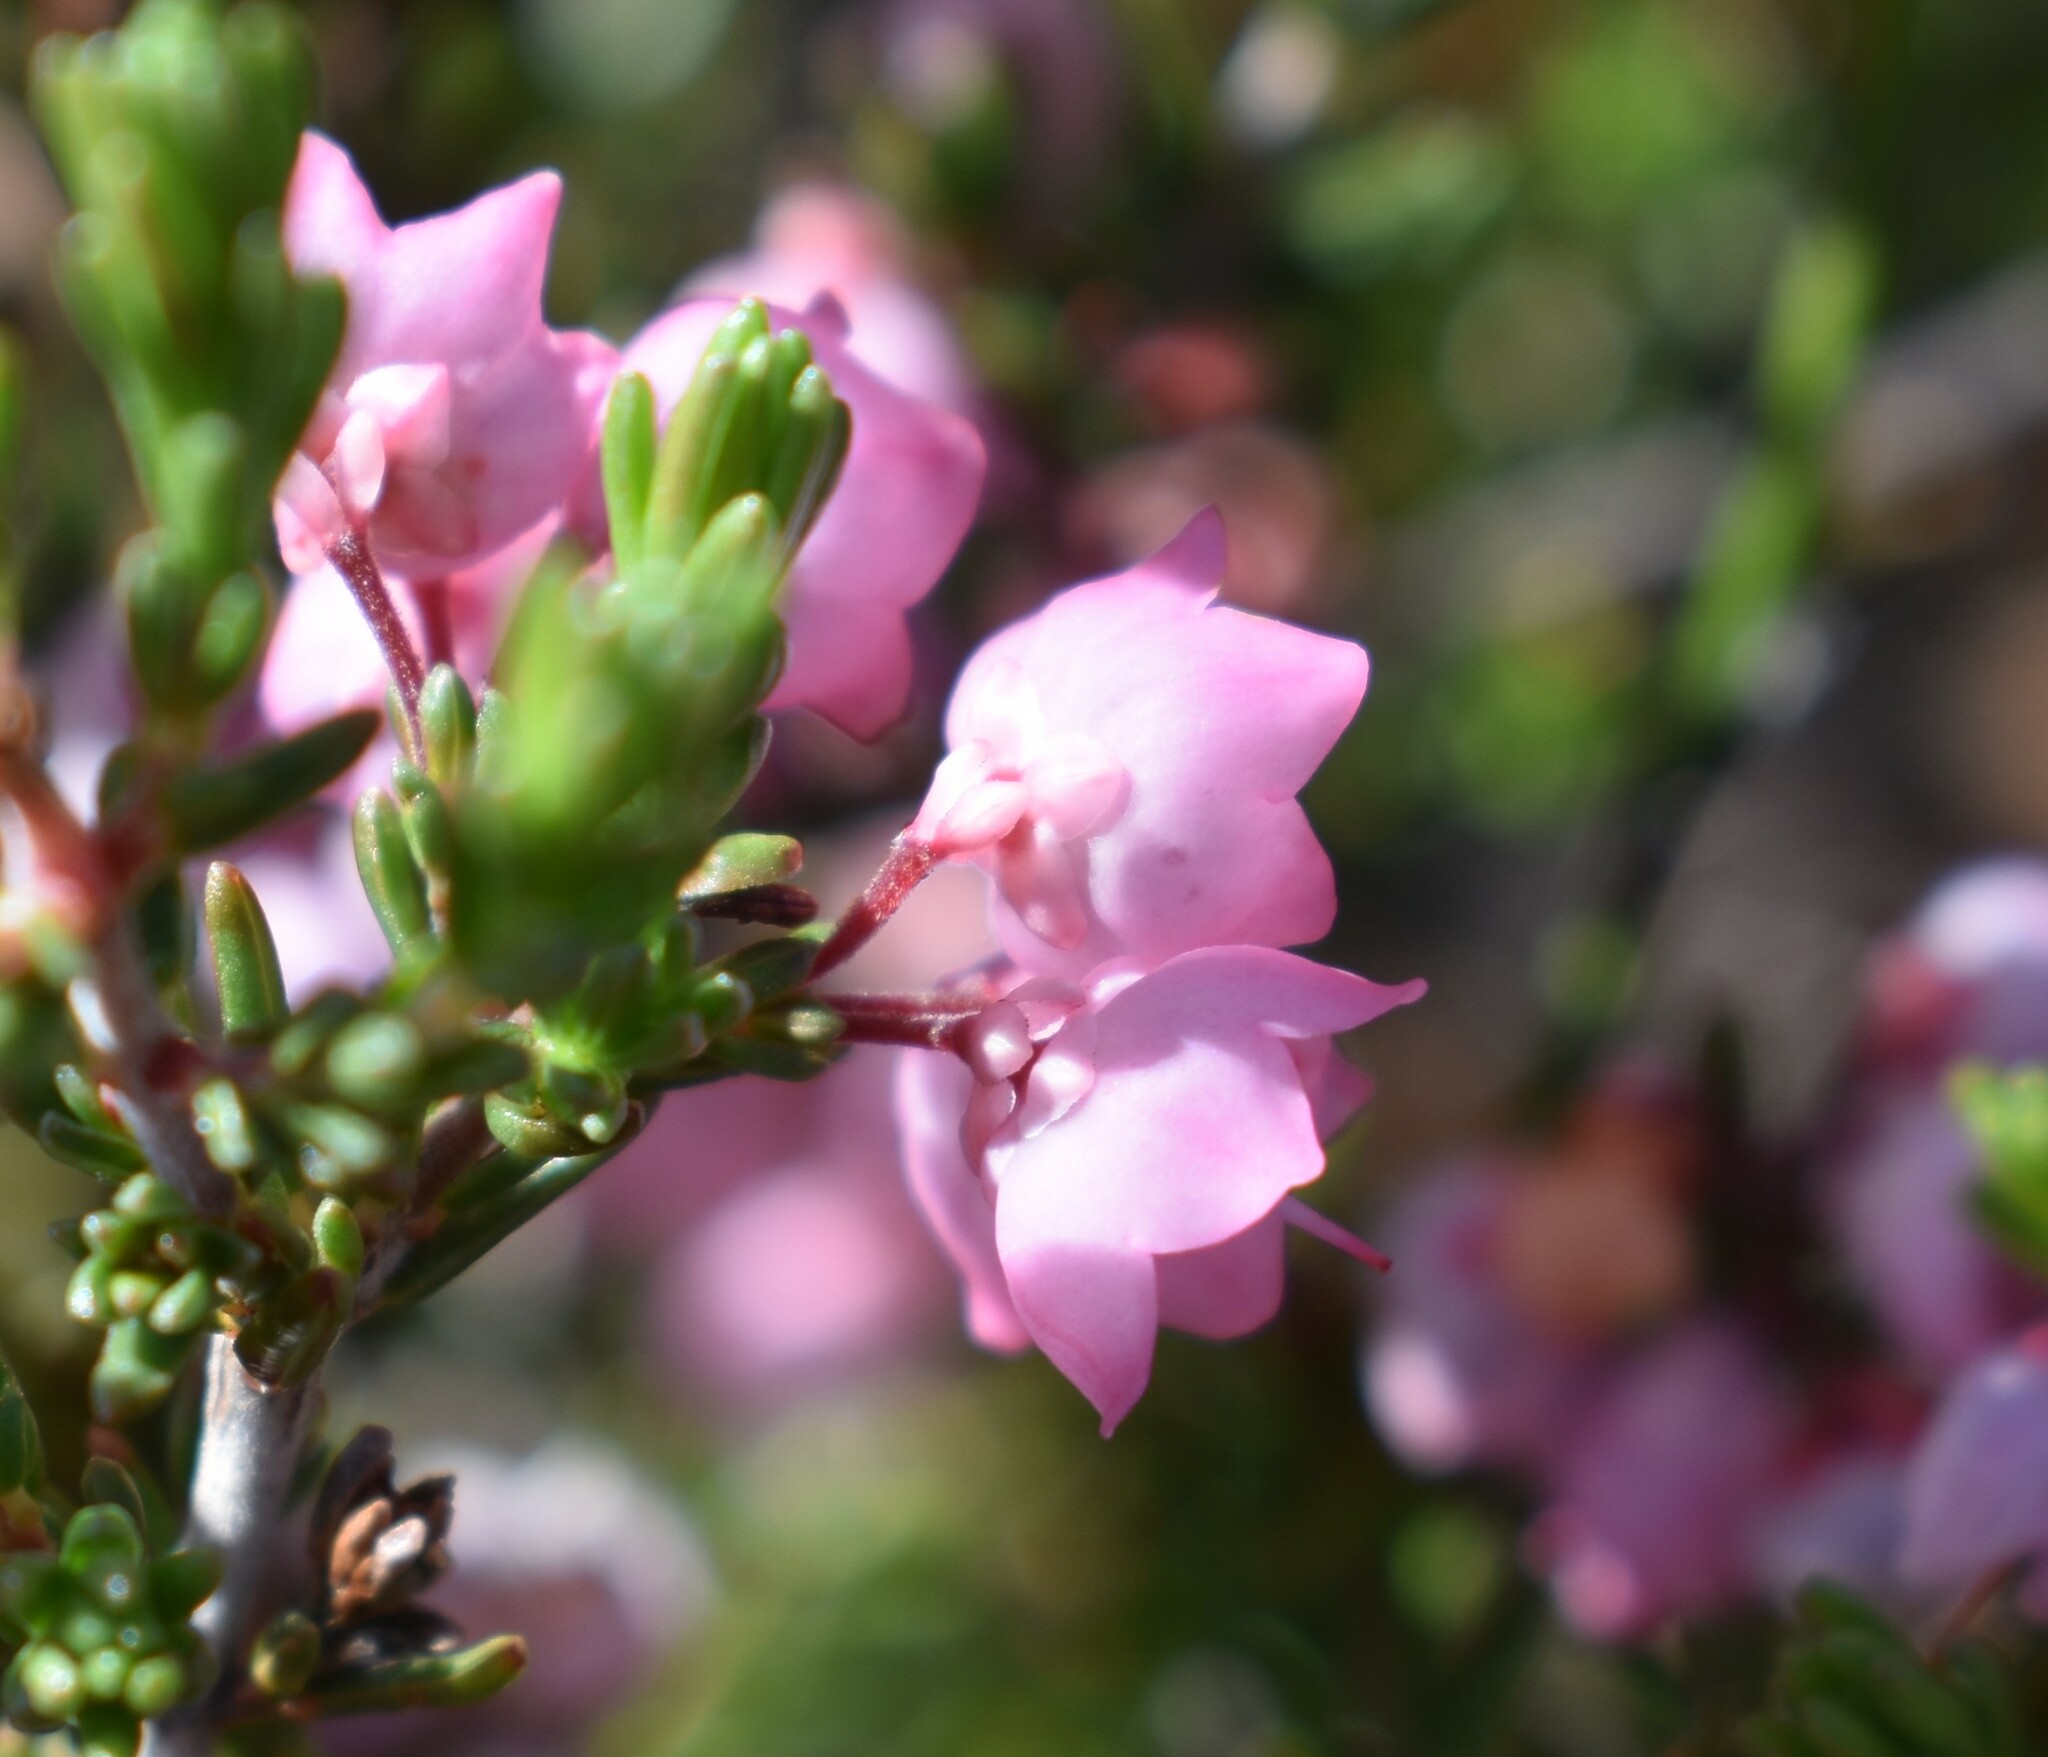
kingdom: Plantae
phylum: Tracheophyta
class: Magnoliopsida
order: Ericales
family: Ericaceae
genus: Erica
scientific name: Erica umbelliflora
